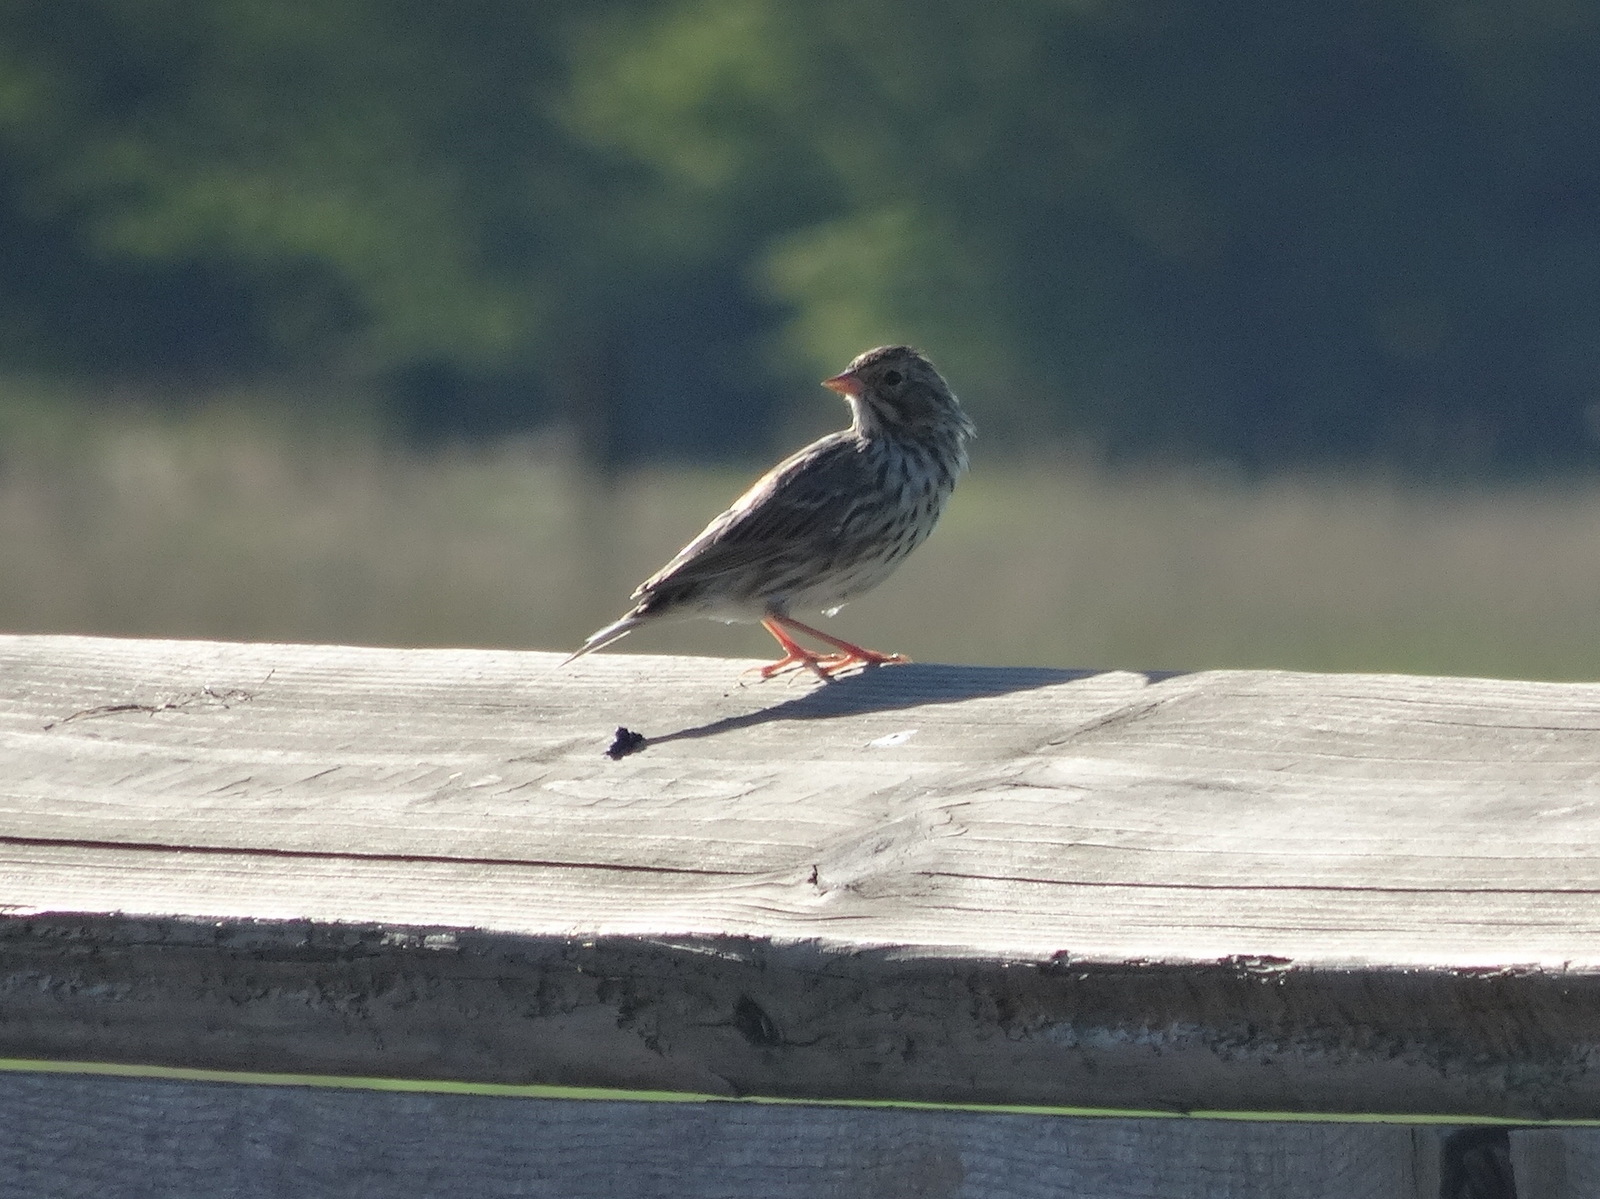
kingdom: Animalia
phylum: Chordata
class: Aves
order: Passeriformes
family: Passerellidae
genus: Passerculus
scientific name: Passerculus sandwichensis
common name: Savannah sparrow
